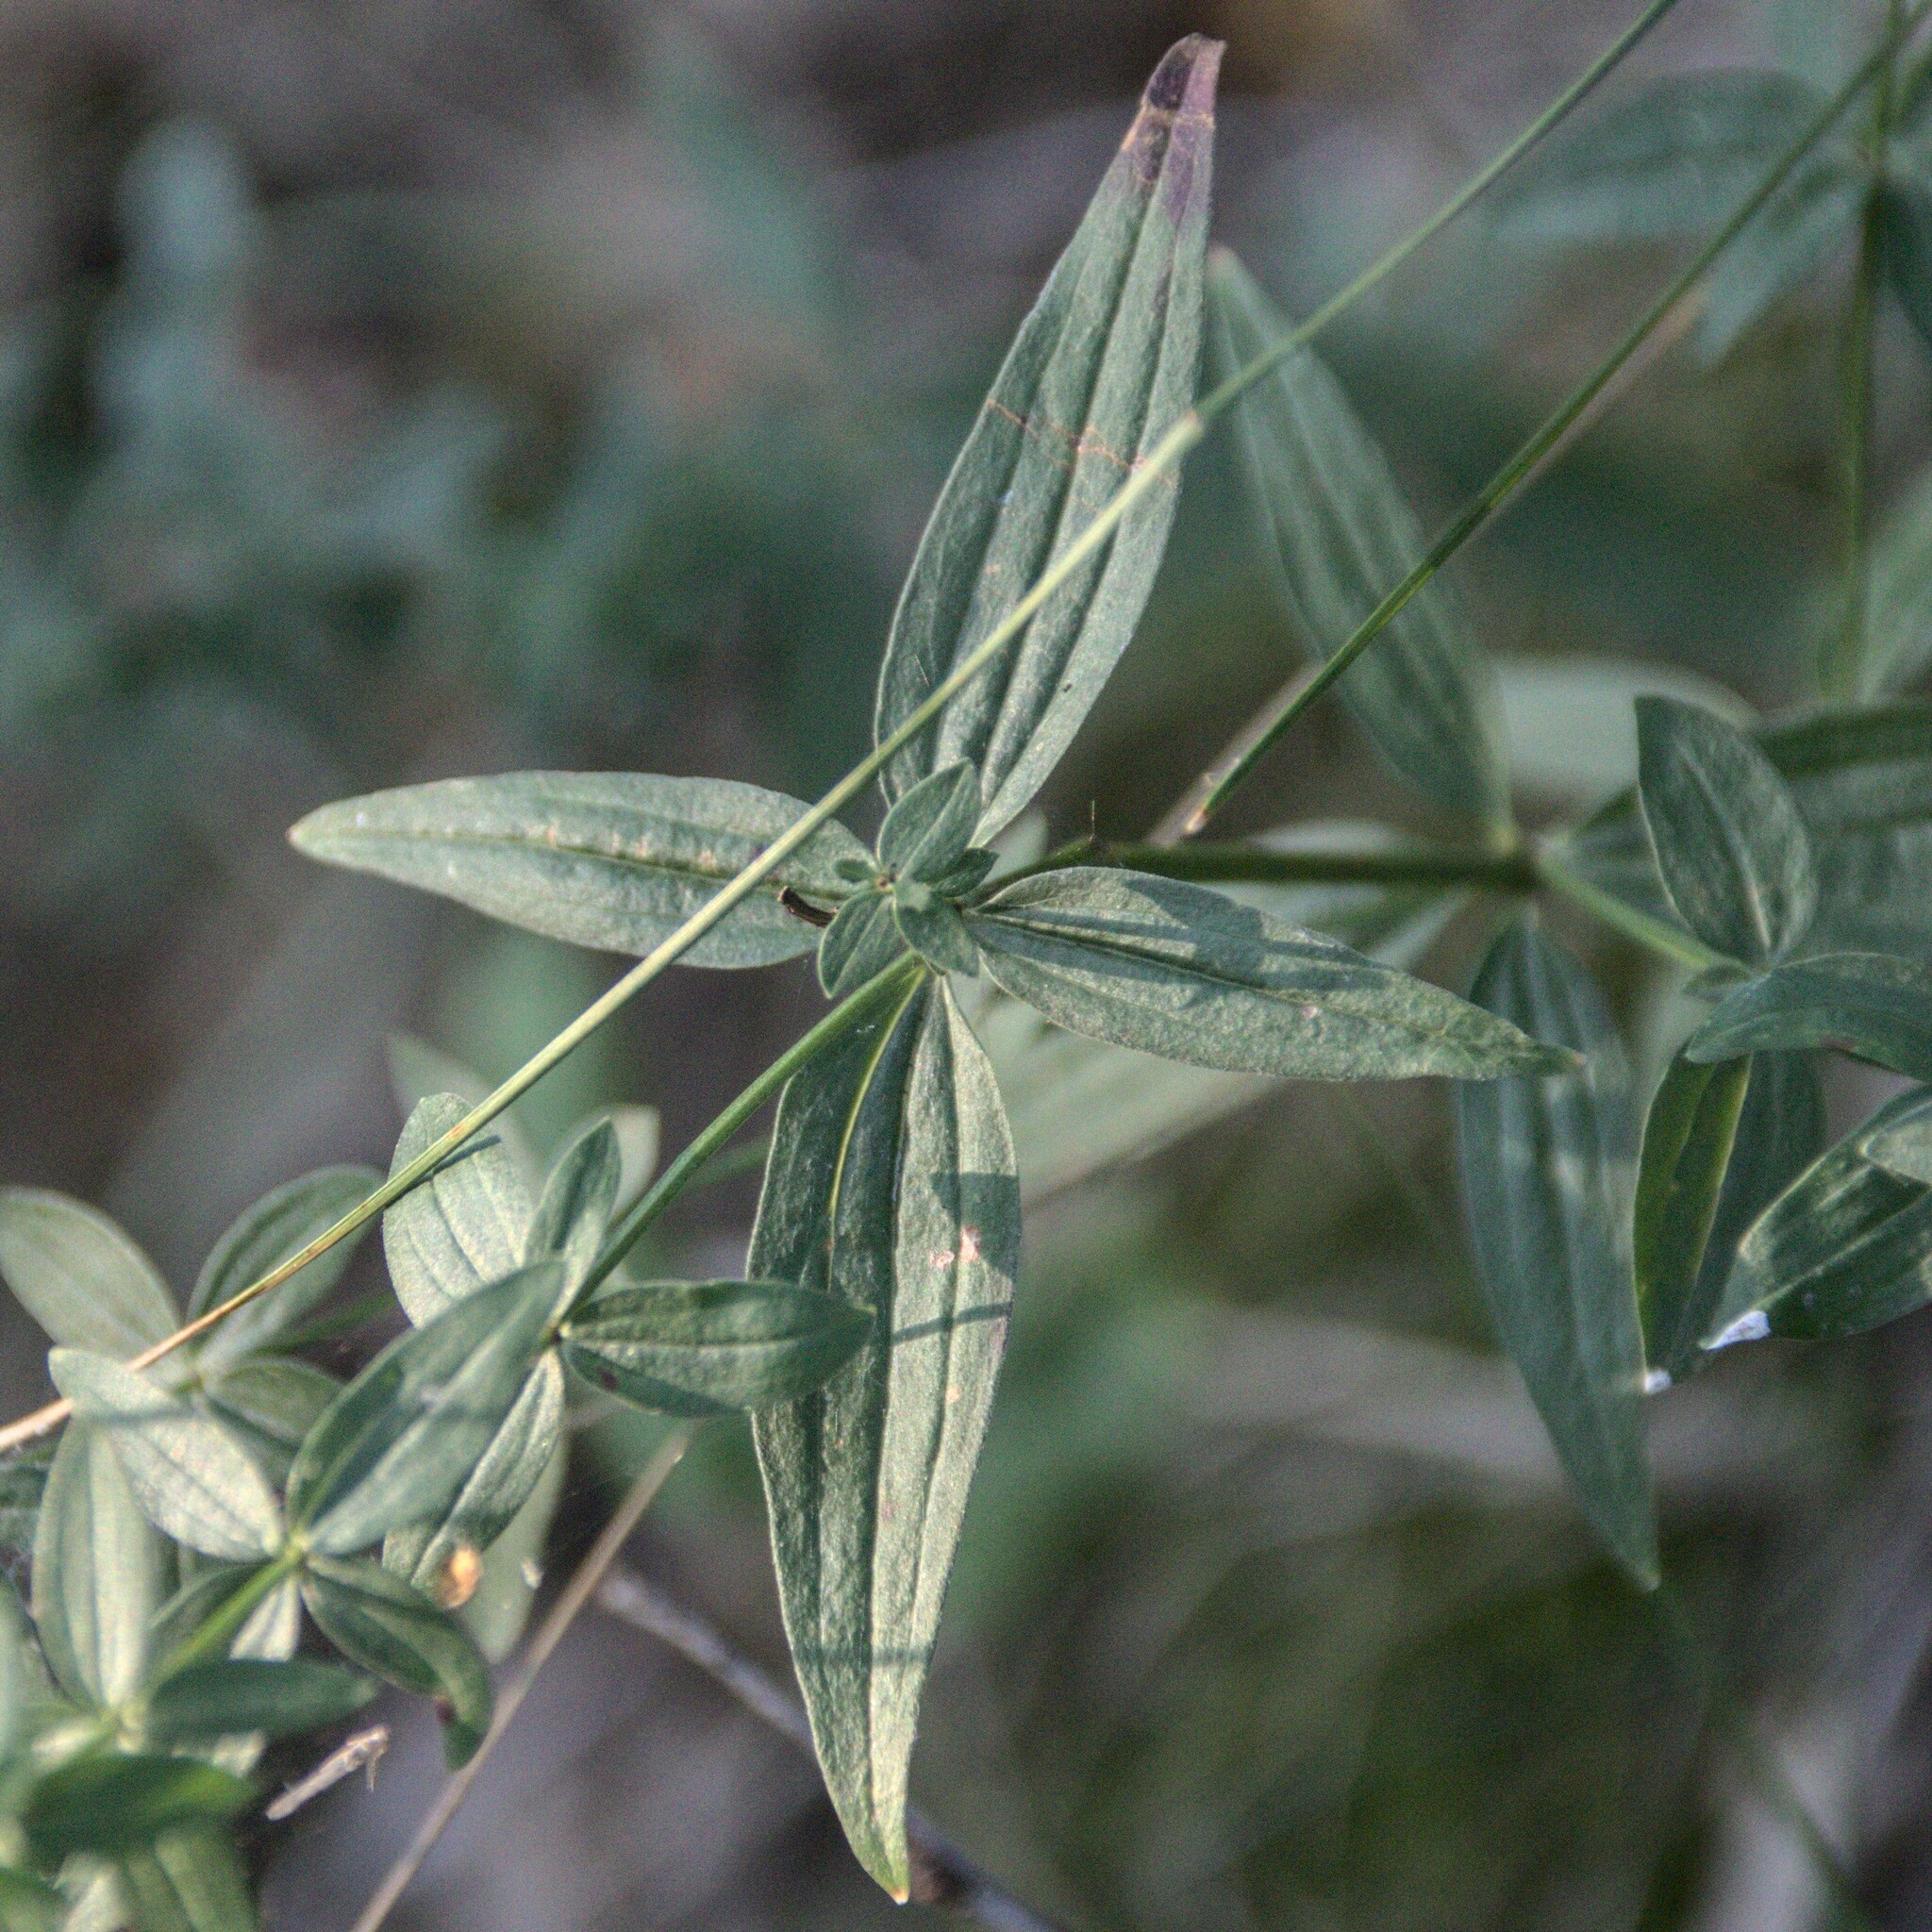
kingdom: Plantae
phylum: Tracheophyta
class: Magnoliopsida
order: Gentianales
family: Rubiaceae
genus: Galium
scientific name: Galium boreale
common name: Northern bedstraw
